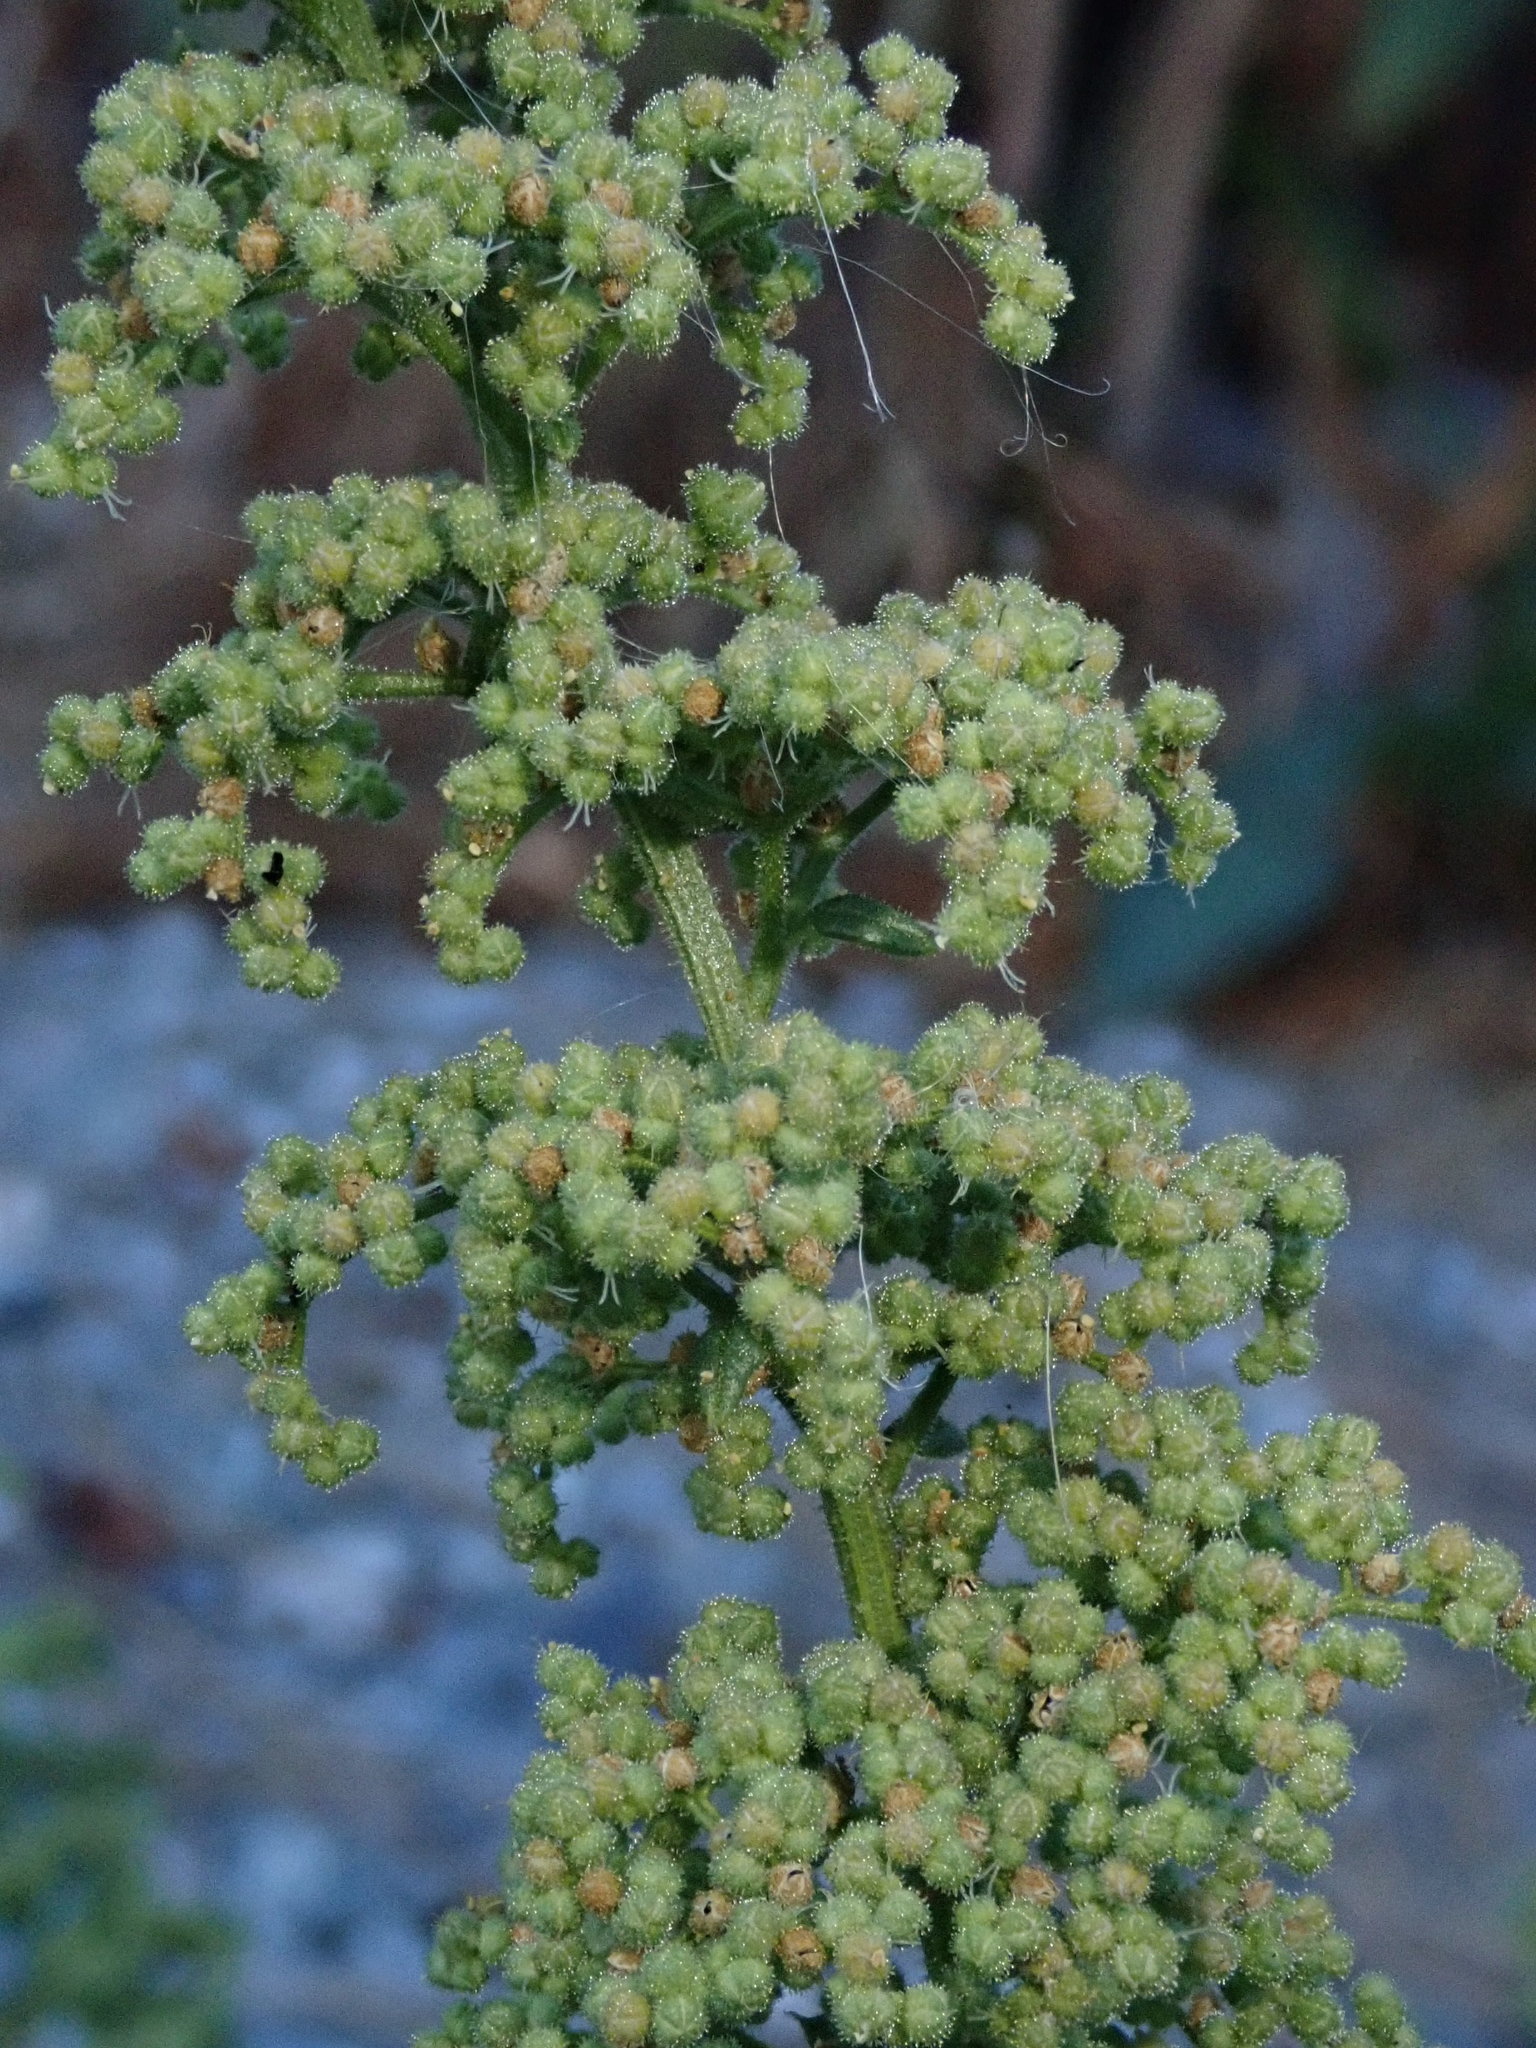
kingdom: Plantae
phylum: Tracheophyta
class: Magnoliopsida
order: Caryophyllales
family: Amaranthaceae
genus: Dysphania
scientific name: Dysphania botrys
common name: Feather-geranium
